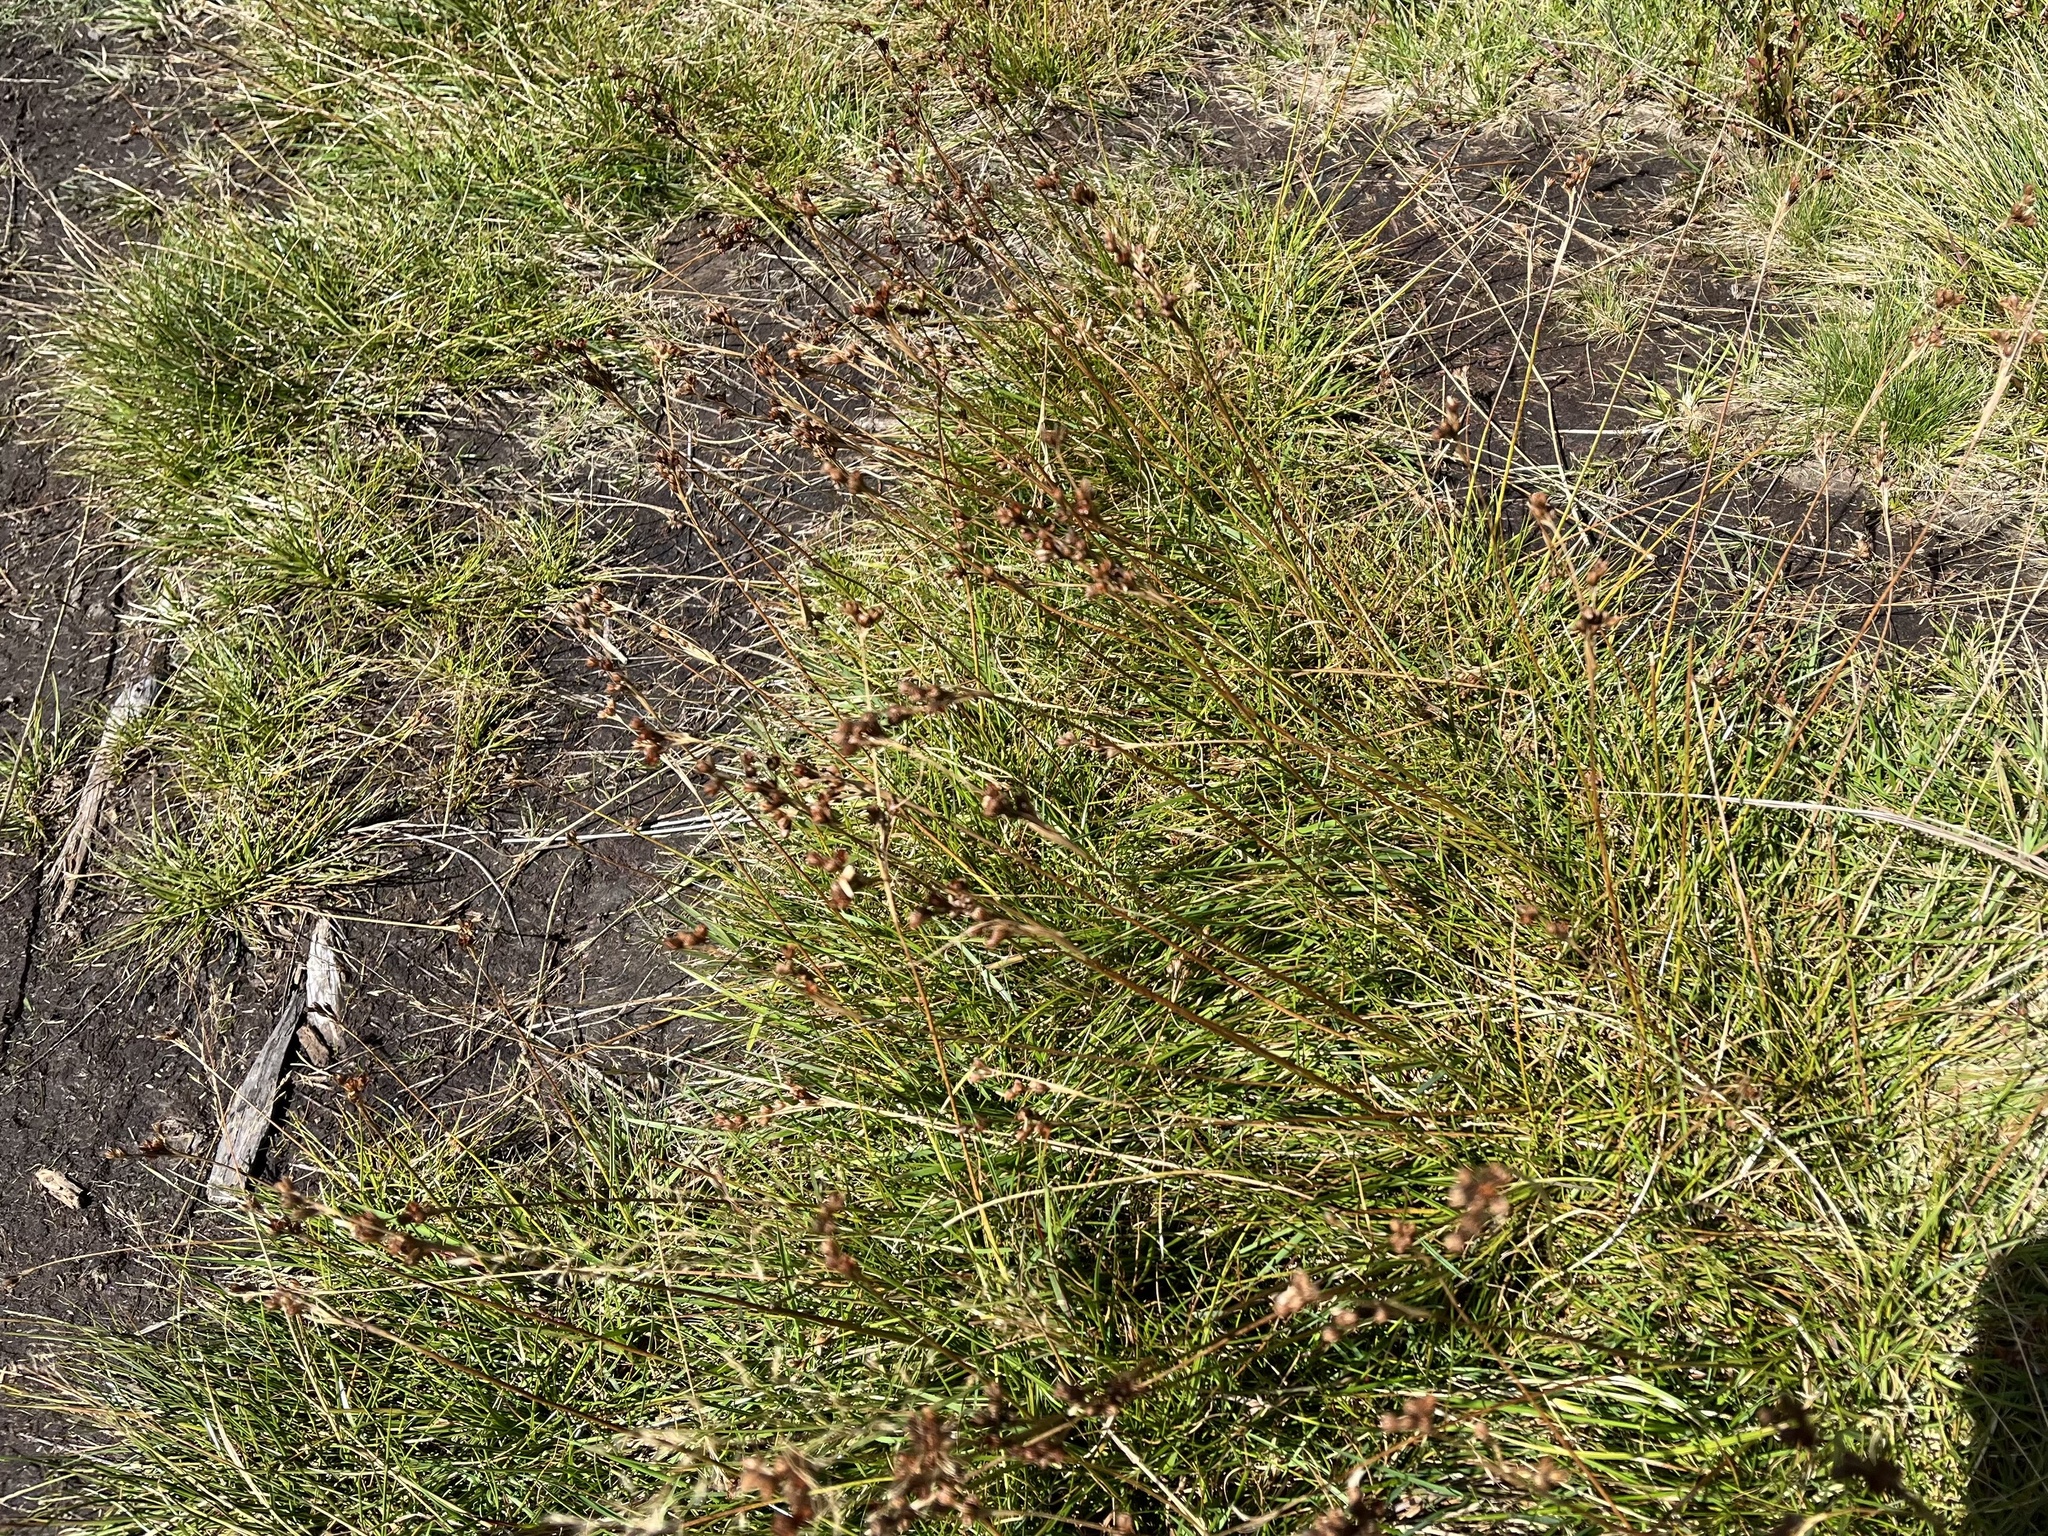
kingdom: Plantae
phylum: Tracheophyta
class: Liliopsida
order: Poales
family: Juncaceae
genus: Juncus
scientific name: Juncus squarrosus
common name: Heath rush
